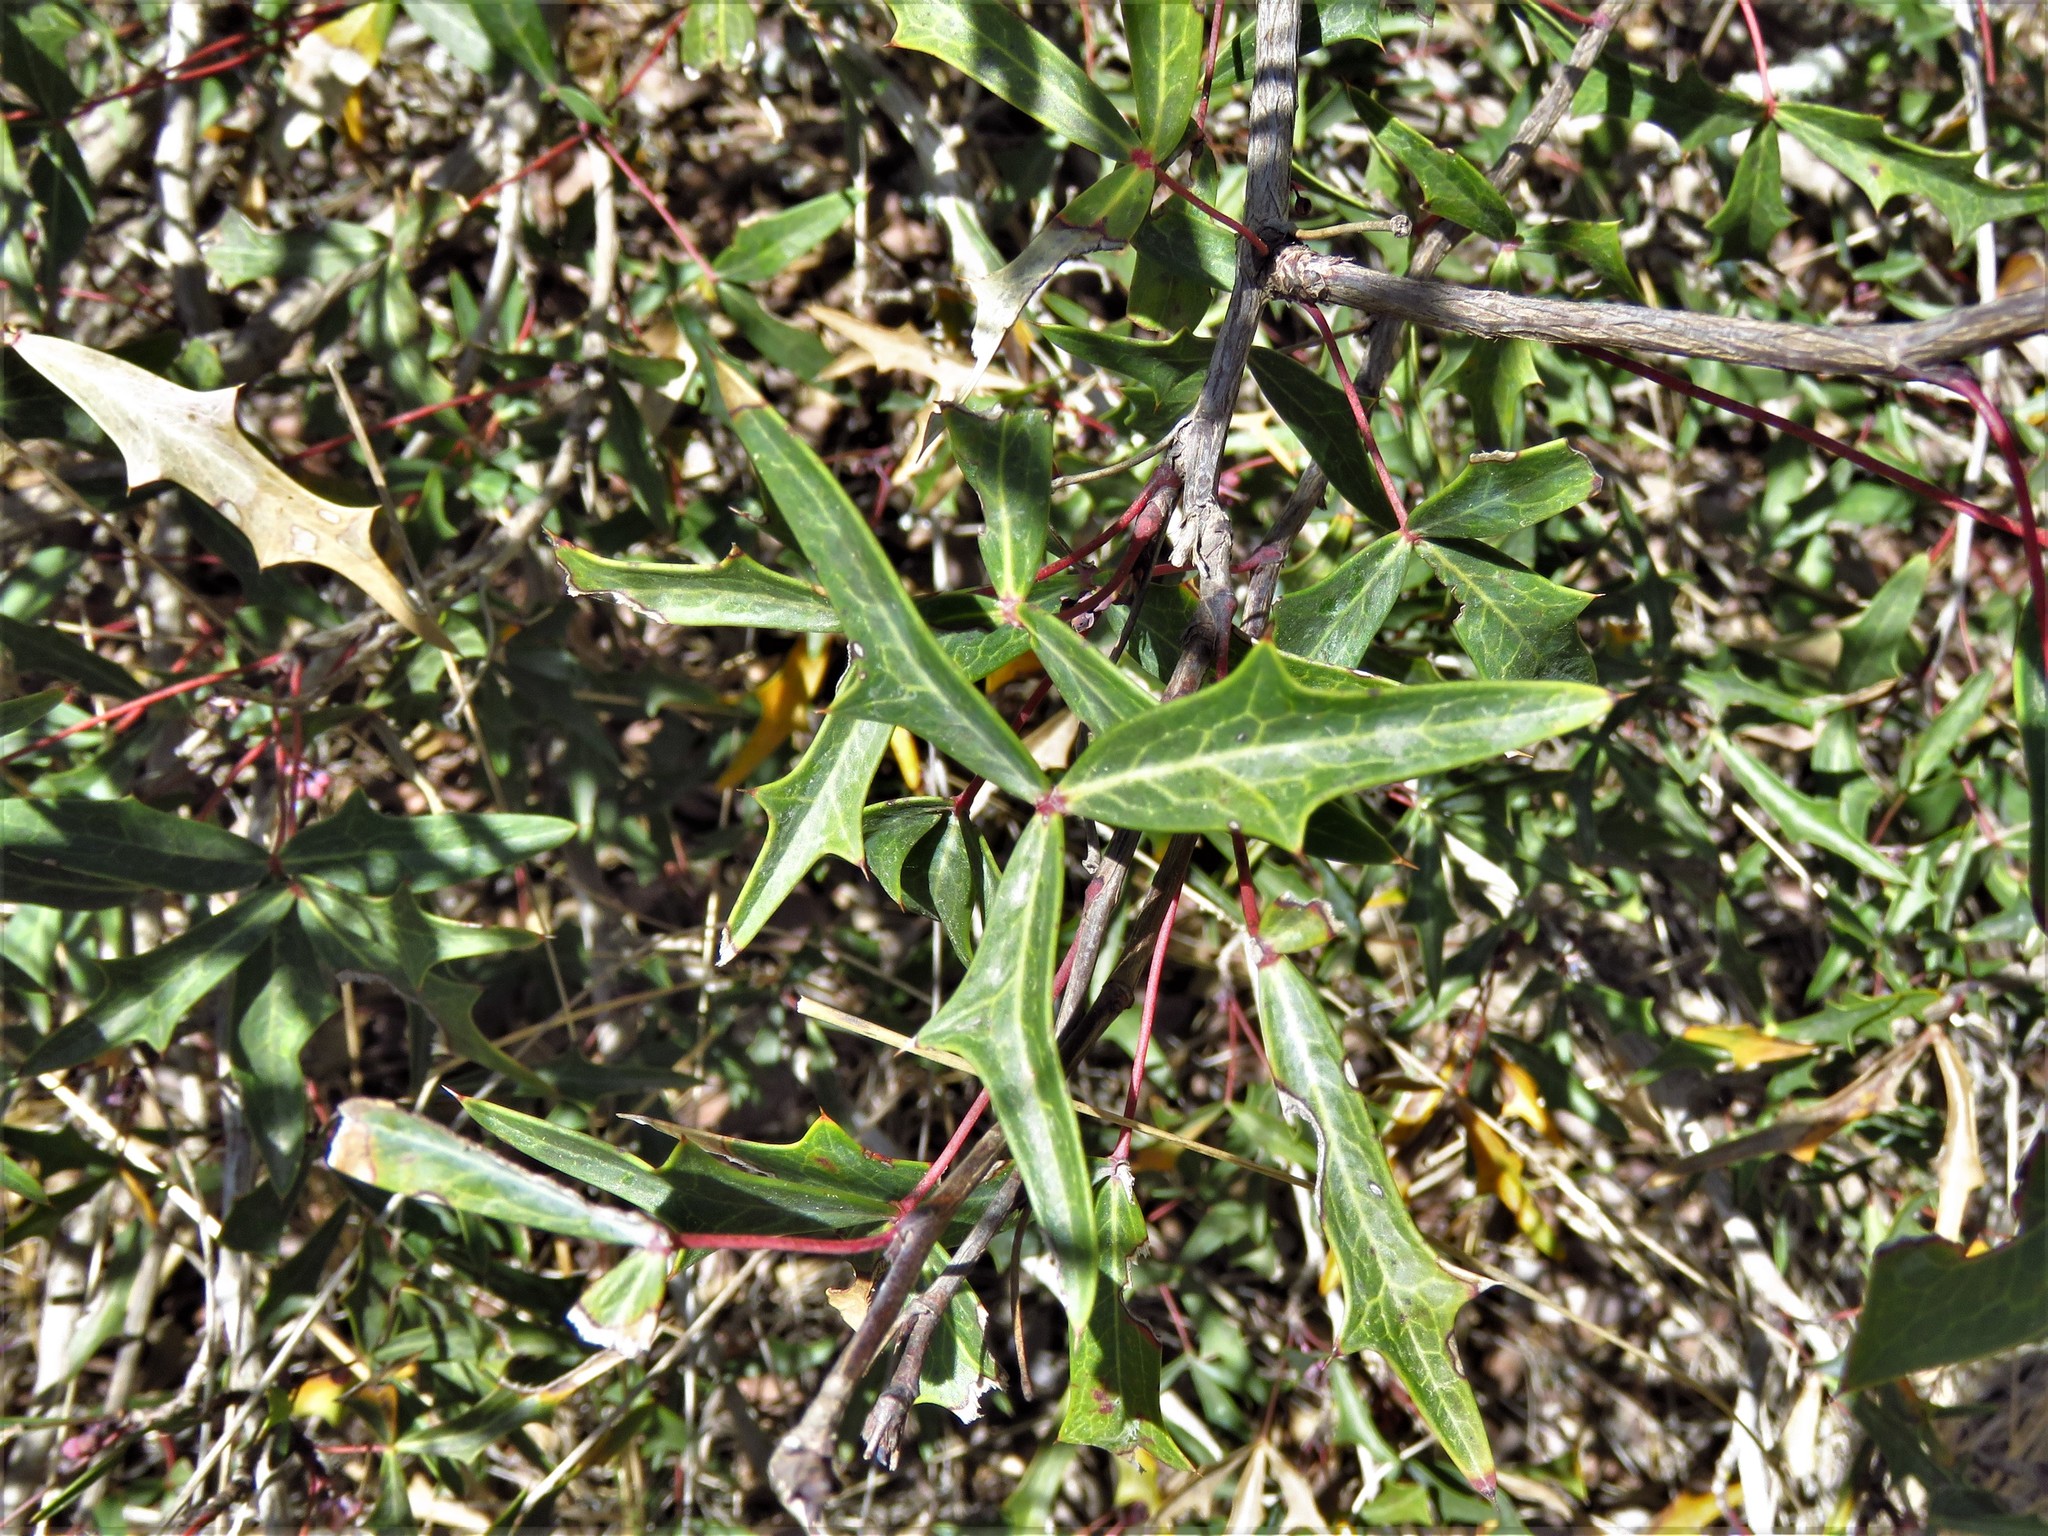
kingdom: Plantae
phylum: Tracheophyta
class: Magnoliopsida
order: Ranunculales
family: Berberidaceae
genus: Alloberberis
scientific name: Alloberberis trifoliolata
